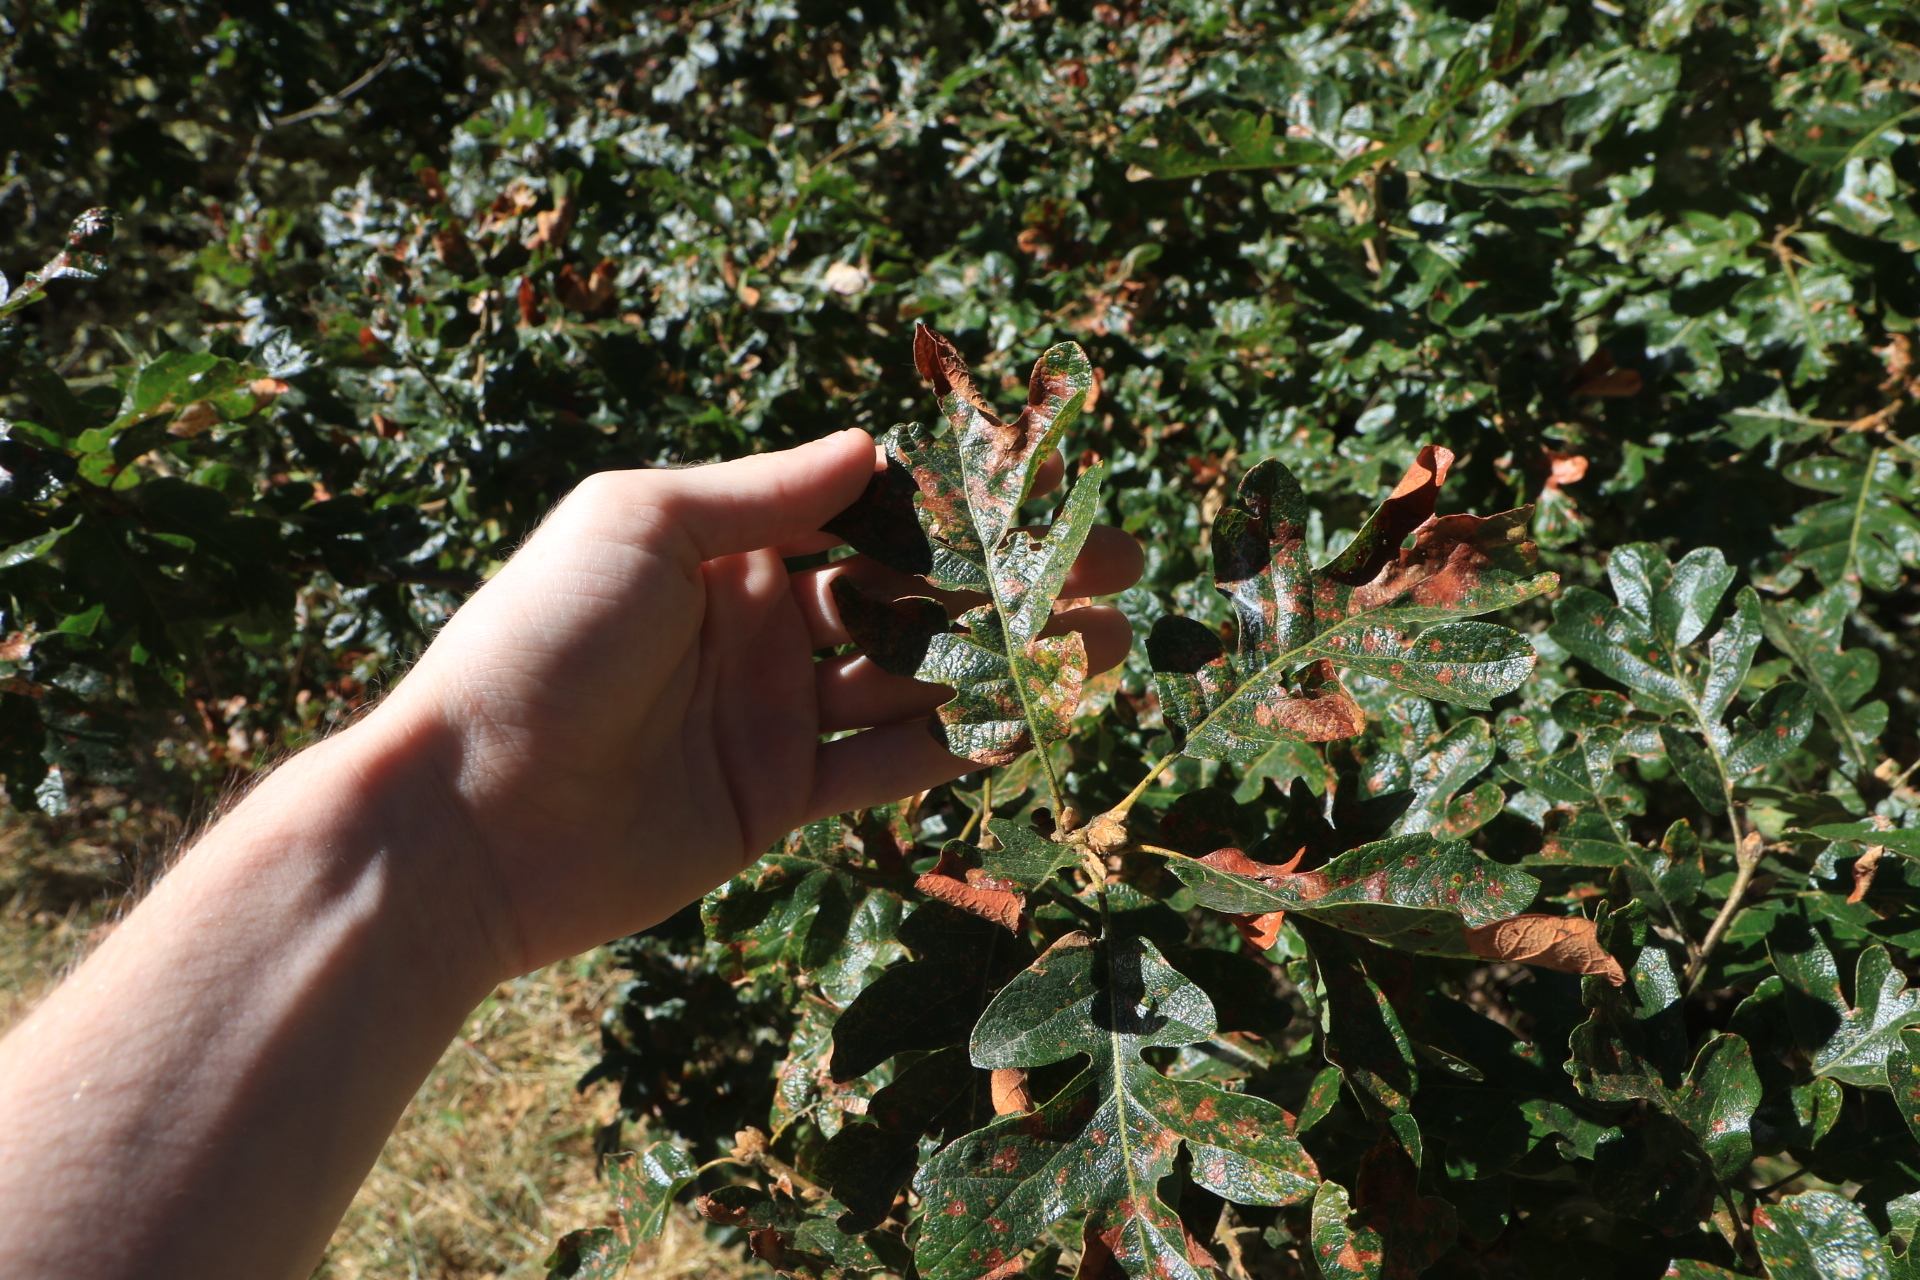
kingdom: Plantae
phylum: Tracheophyta
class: Magnoliopsida
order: Fagales
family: Fagaceae
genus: Quercus
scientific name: Quercus garryana
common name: Garry oak
